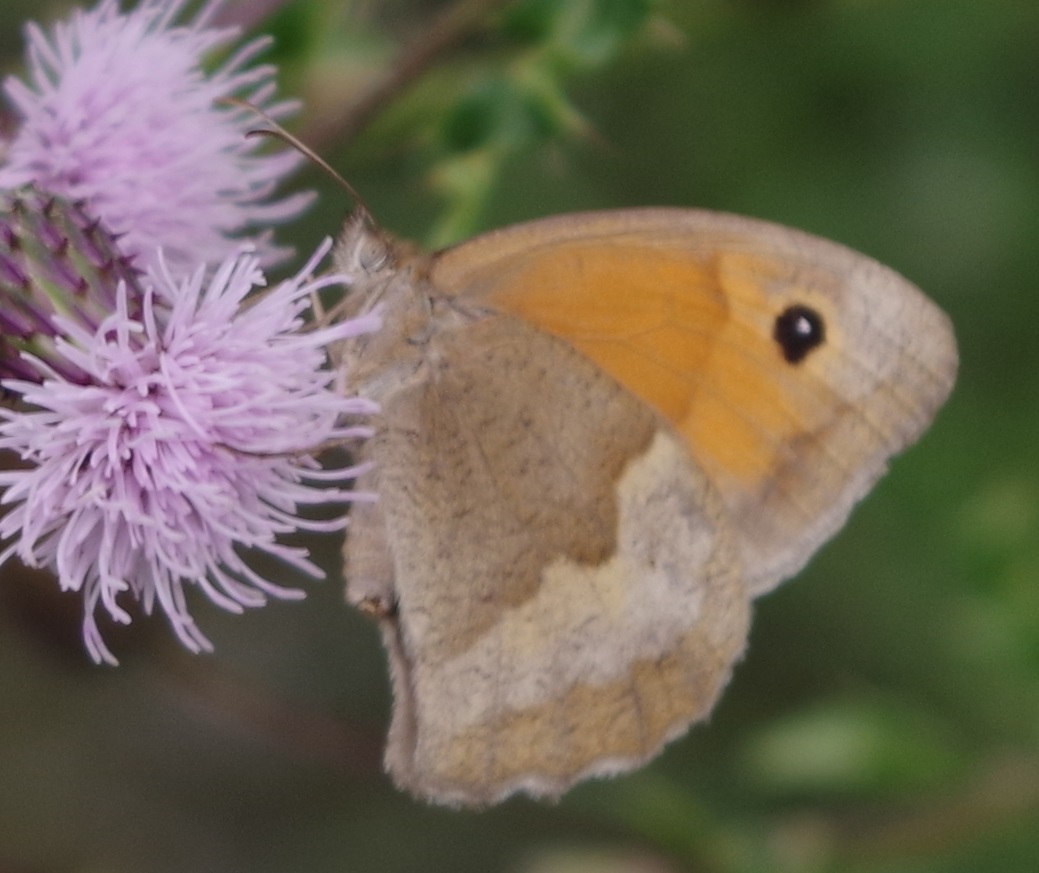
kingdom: Animalia
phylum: Arthropoda
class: Insecta
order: Lepidoptera
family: Nymphalidae
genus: Maniola
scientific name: Maniola jurtina
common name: Meadow brown
